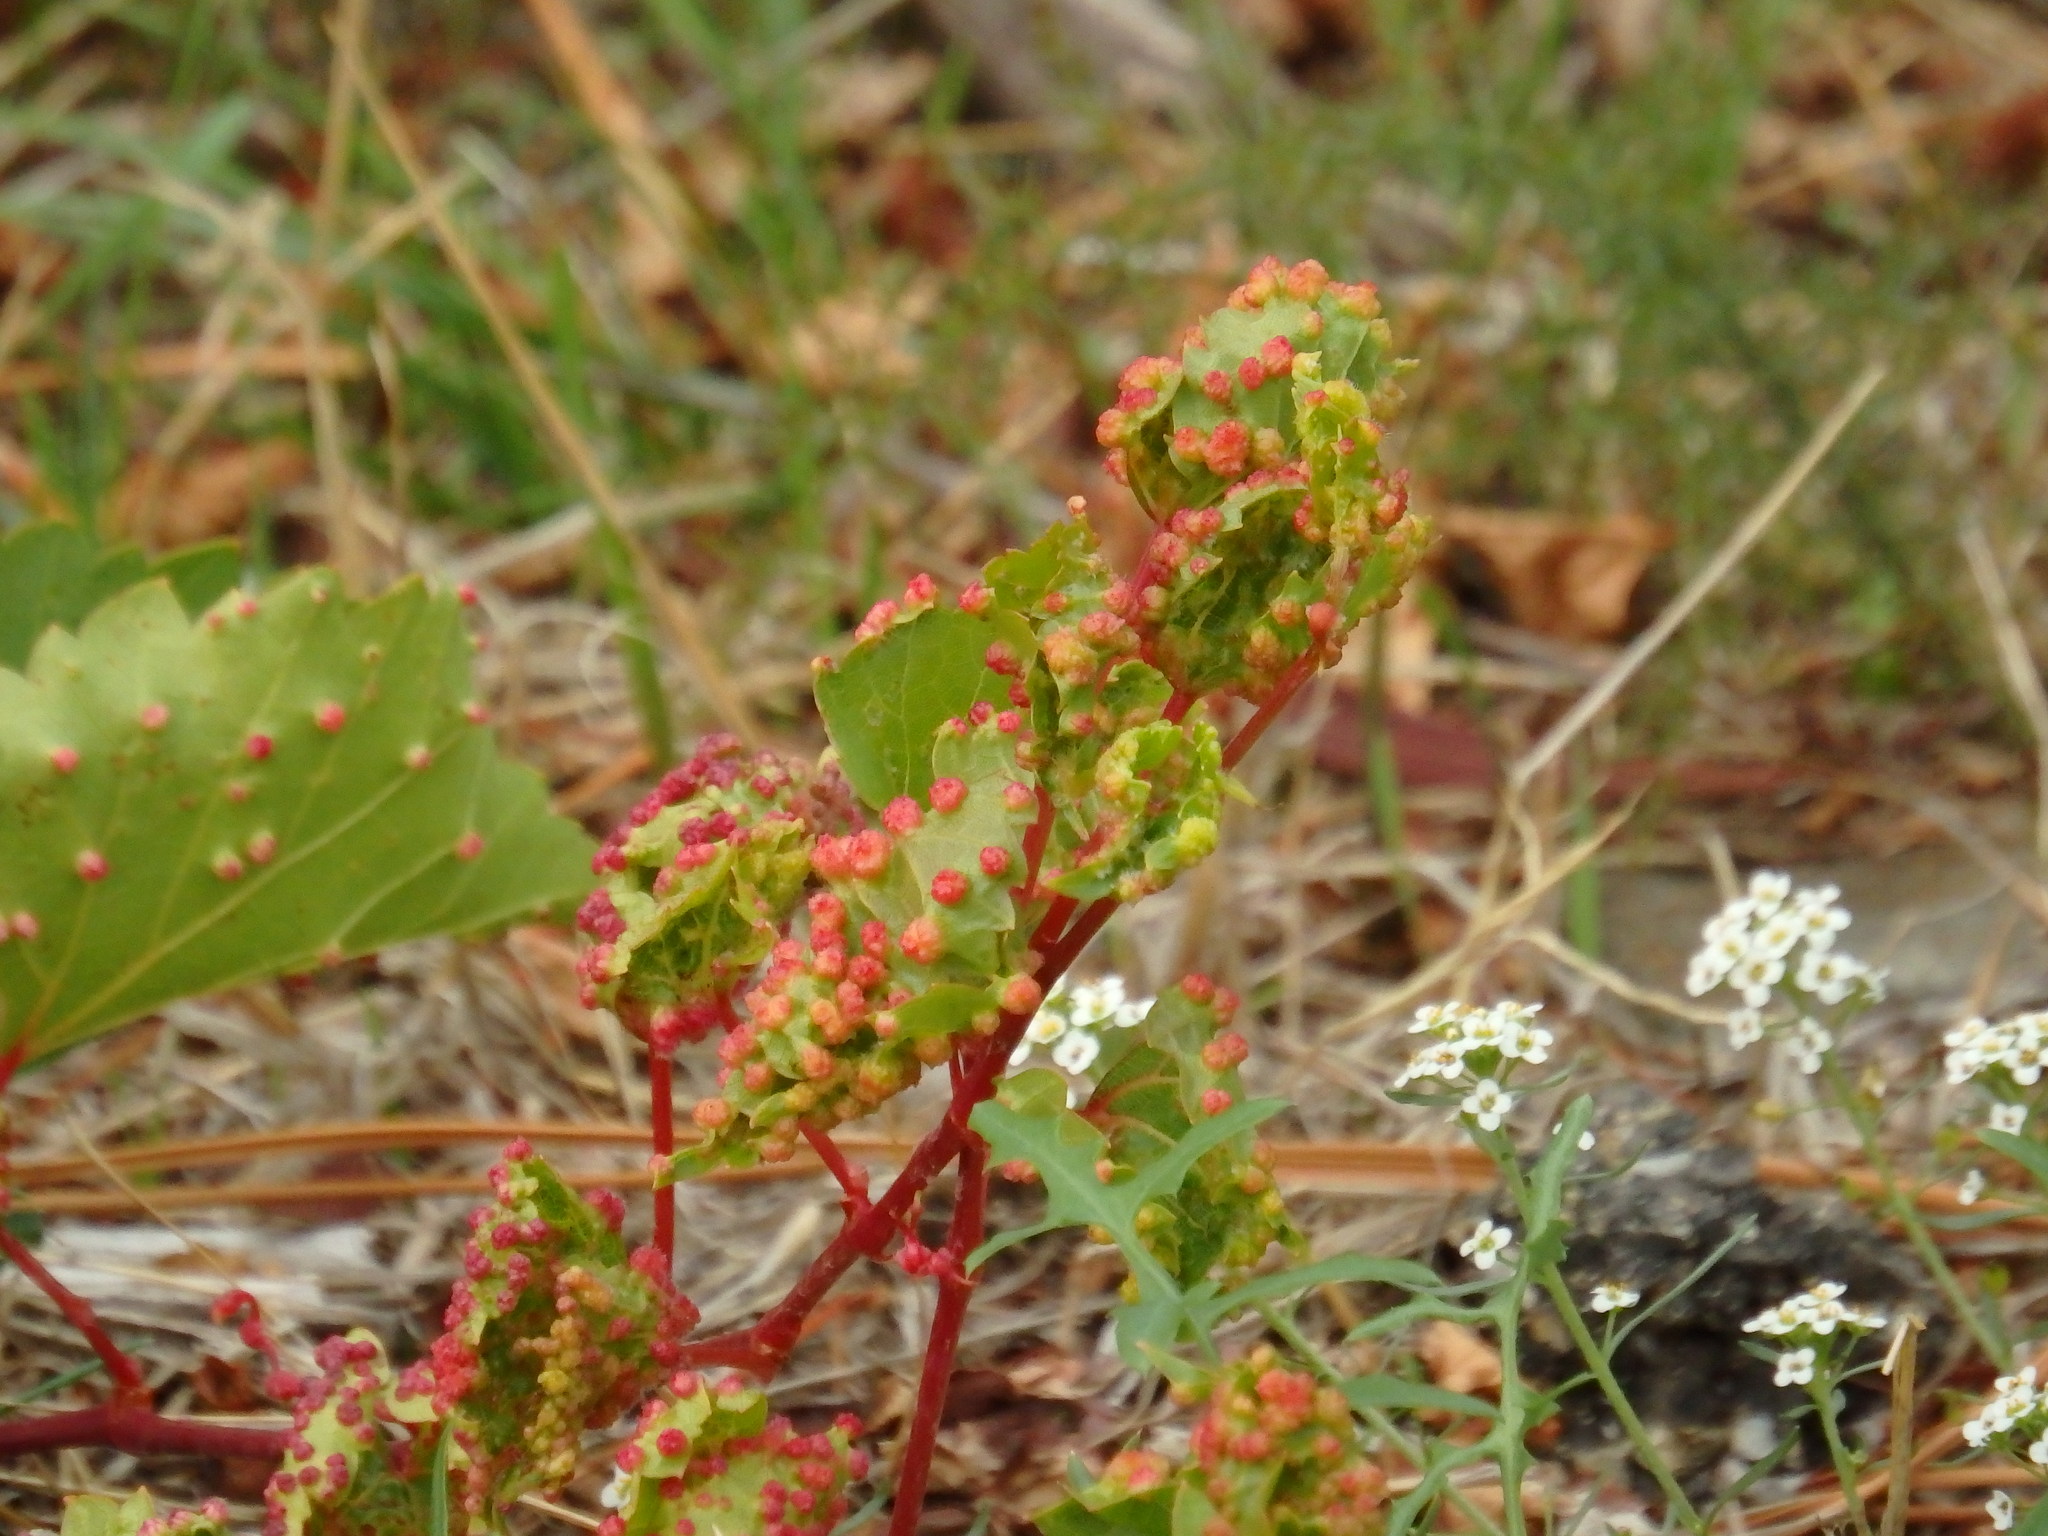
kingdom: Animalia
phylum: Arthropoda
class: Insecta
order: Hemiptera
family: Phylloxeridae
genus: Daktulosphaira
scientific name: Daktulosphaira vitifoliae
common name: Grape phylloxera
